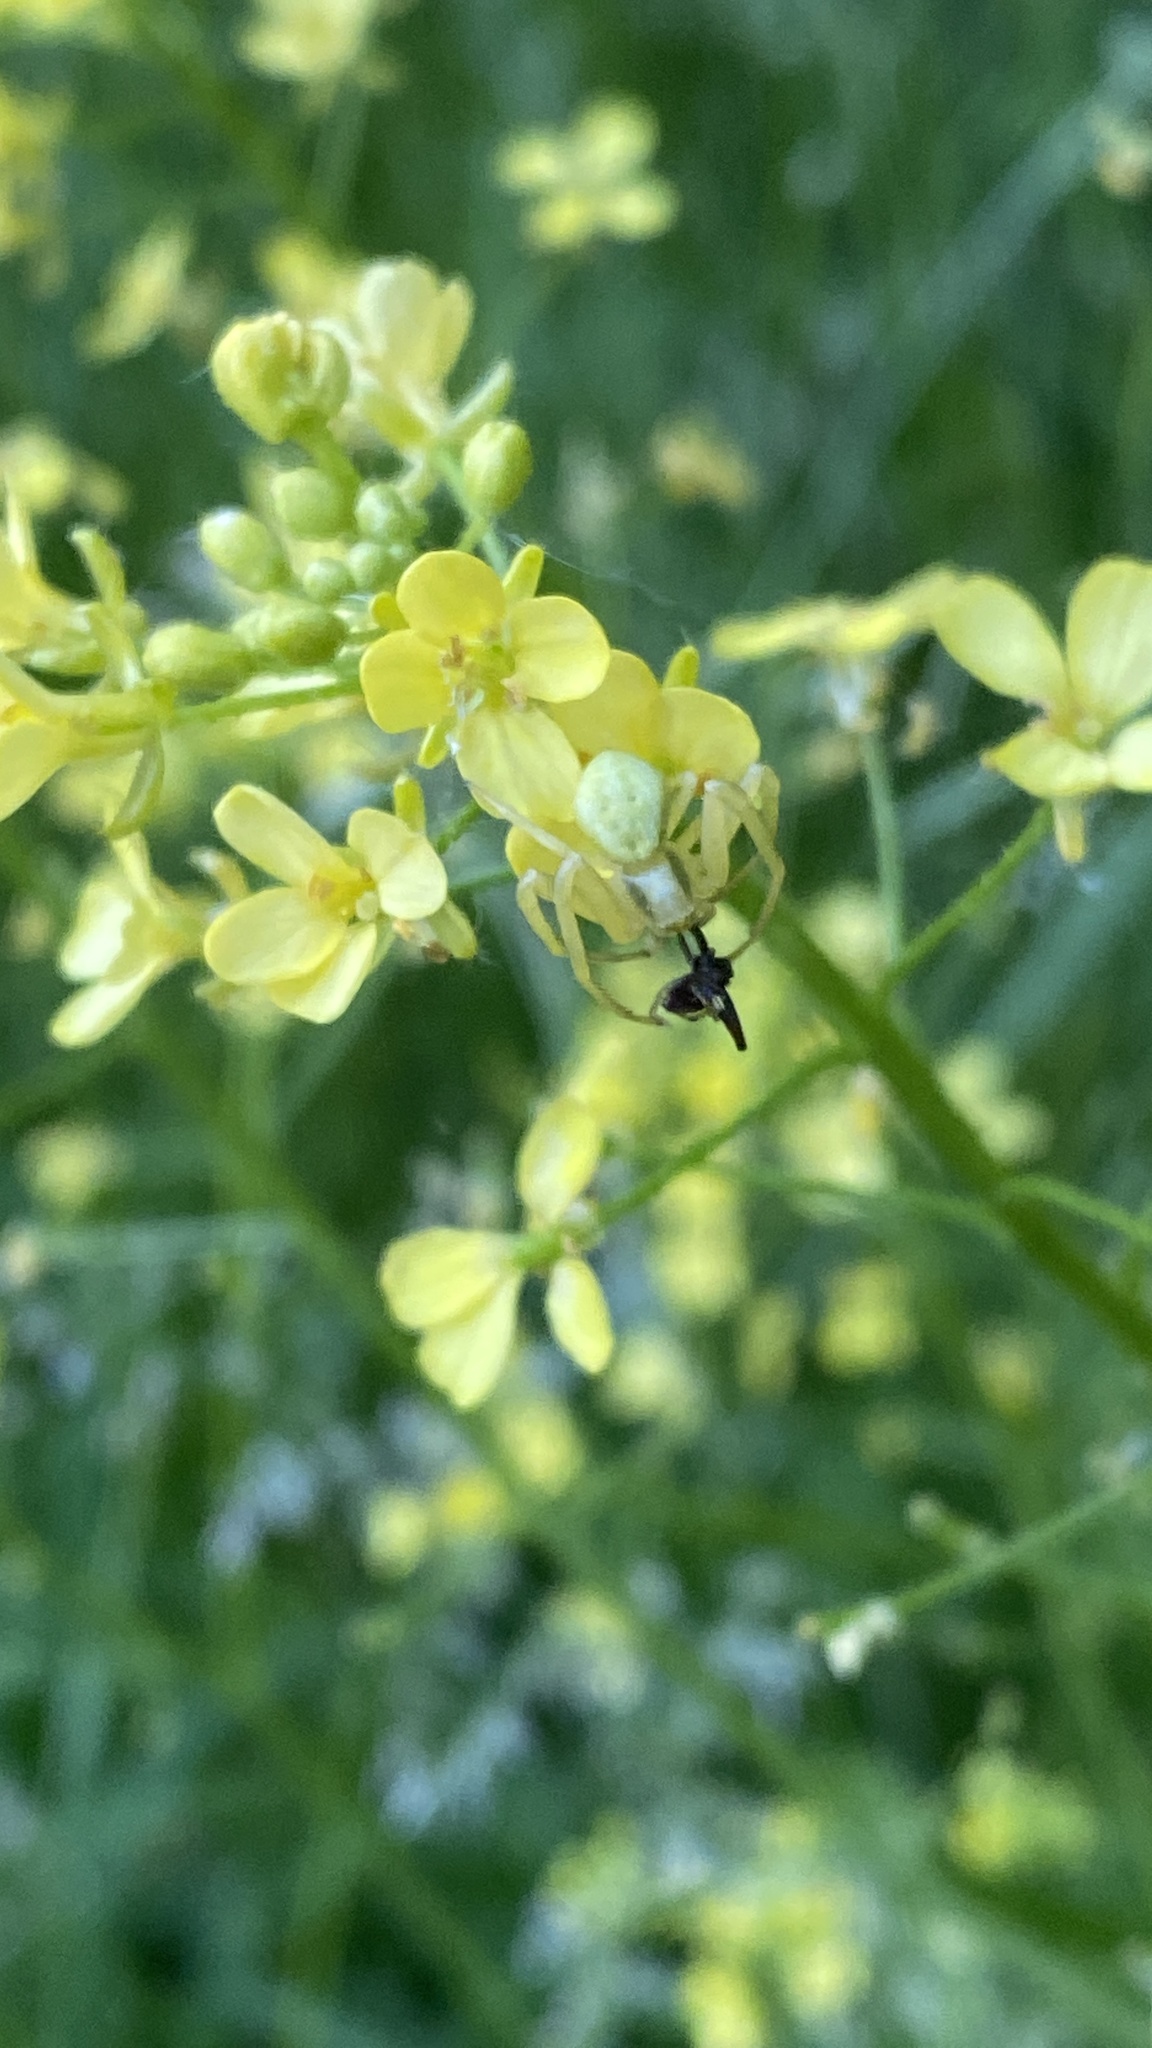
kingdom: Animalia
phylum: Arthropoda
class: Arachnida
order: Araneae
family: Thomisidae
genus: Misumena
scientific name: Misumena vatia
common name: Goldenrod crab spider
